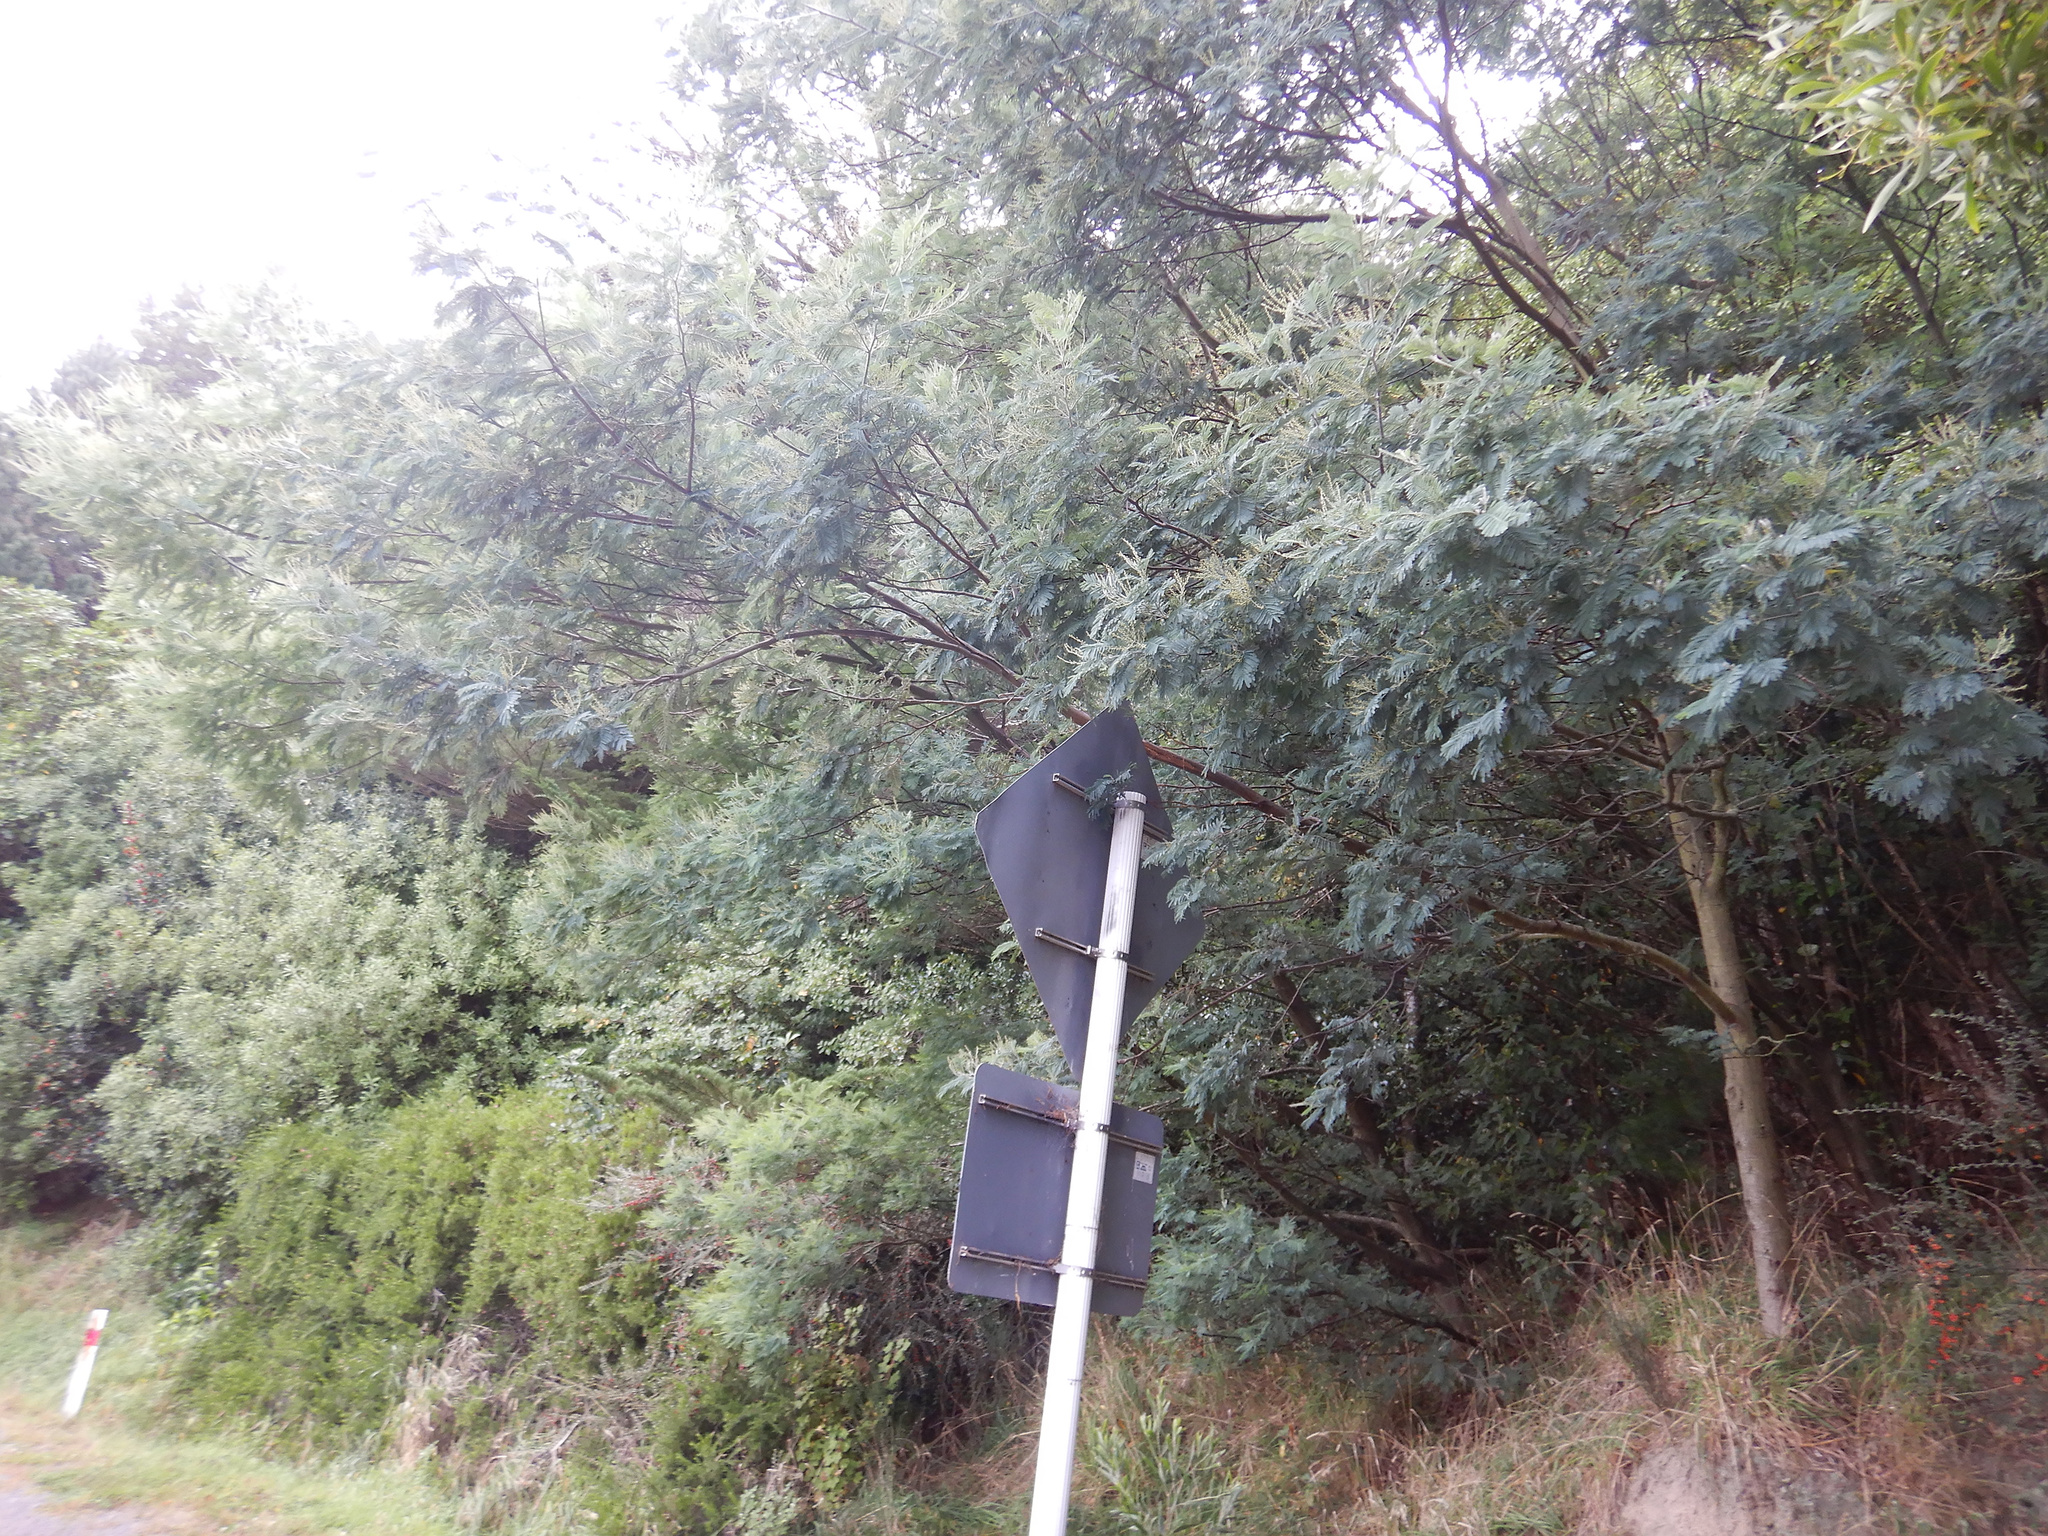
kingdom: Plantae
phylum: Tracheophyta
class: Magnoliopsida
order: Fabales
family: Fabaceae
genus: Acacia
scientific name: Acacia dealbata
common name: Silver wattle
